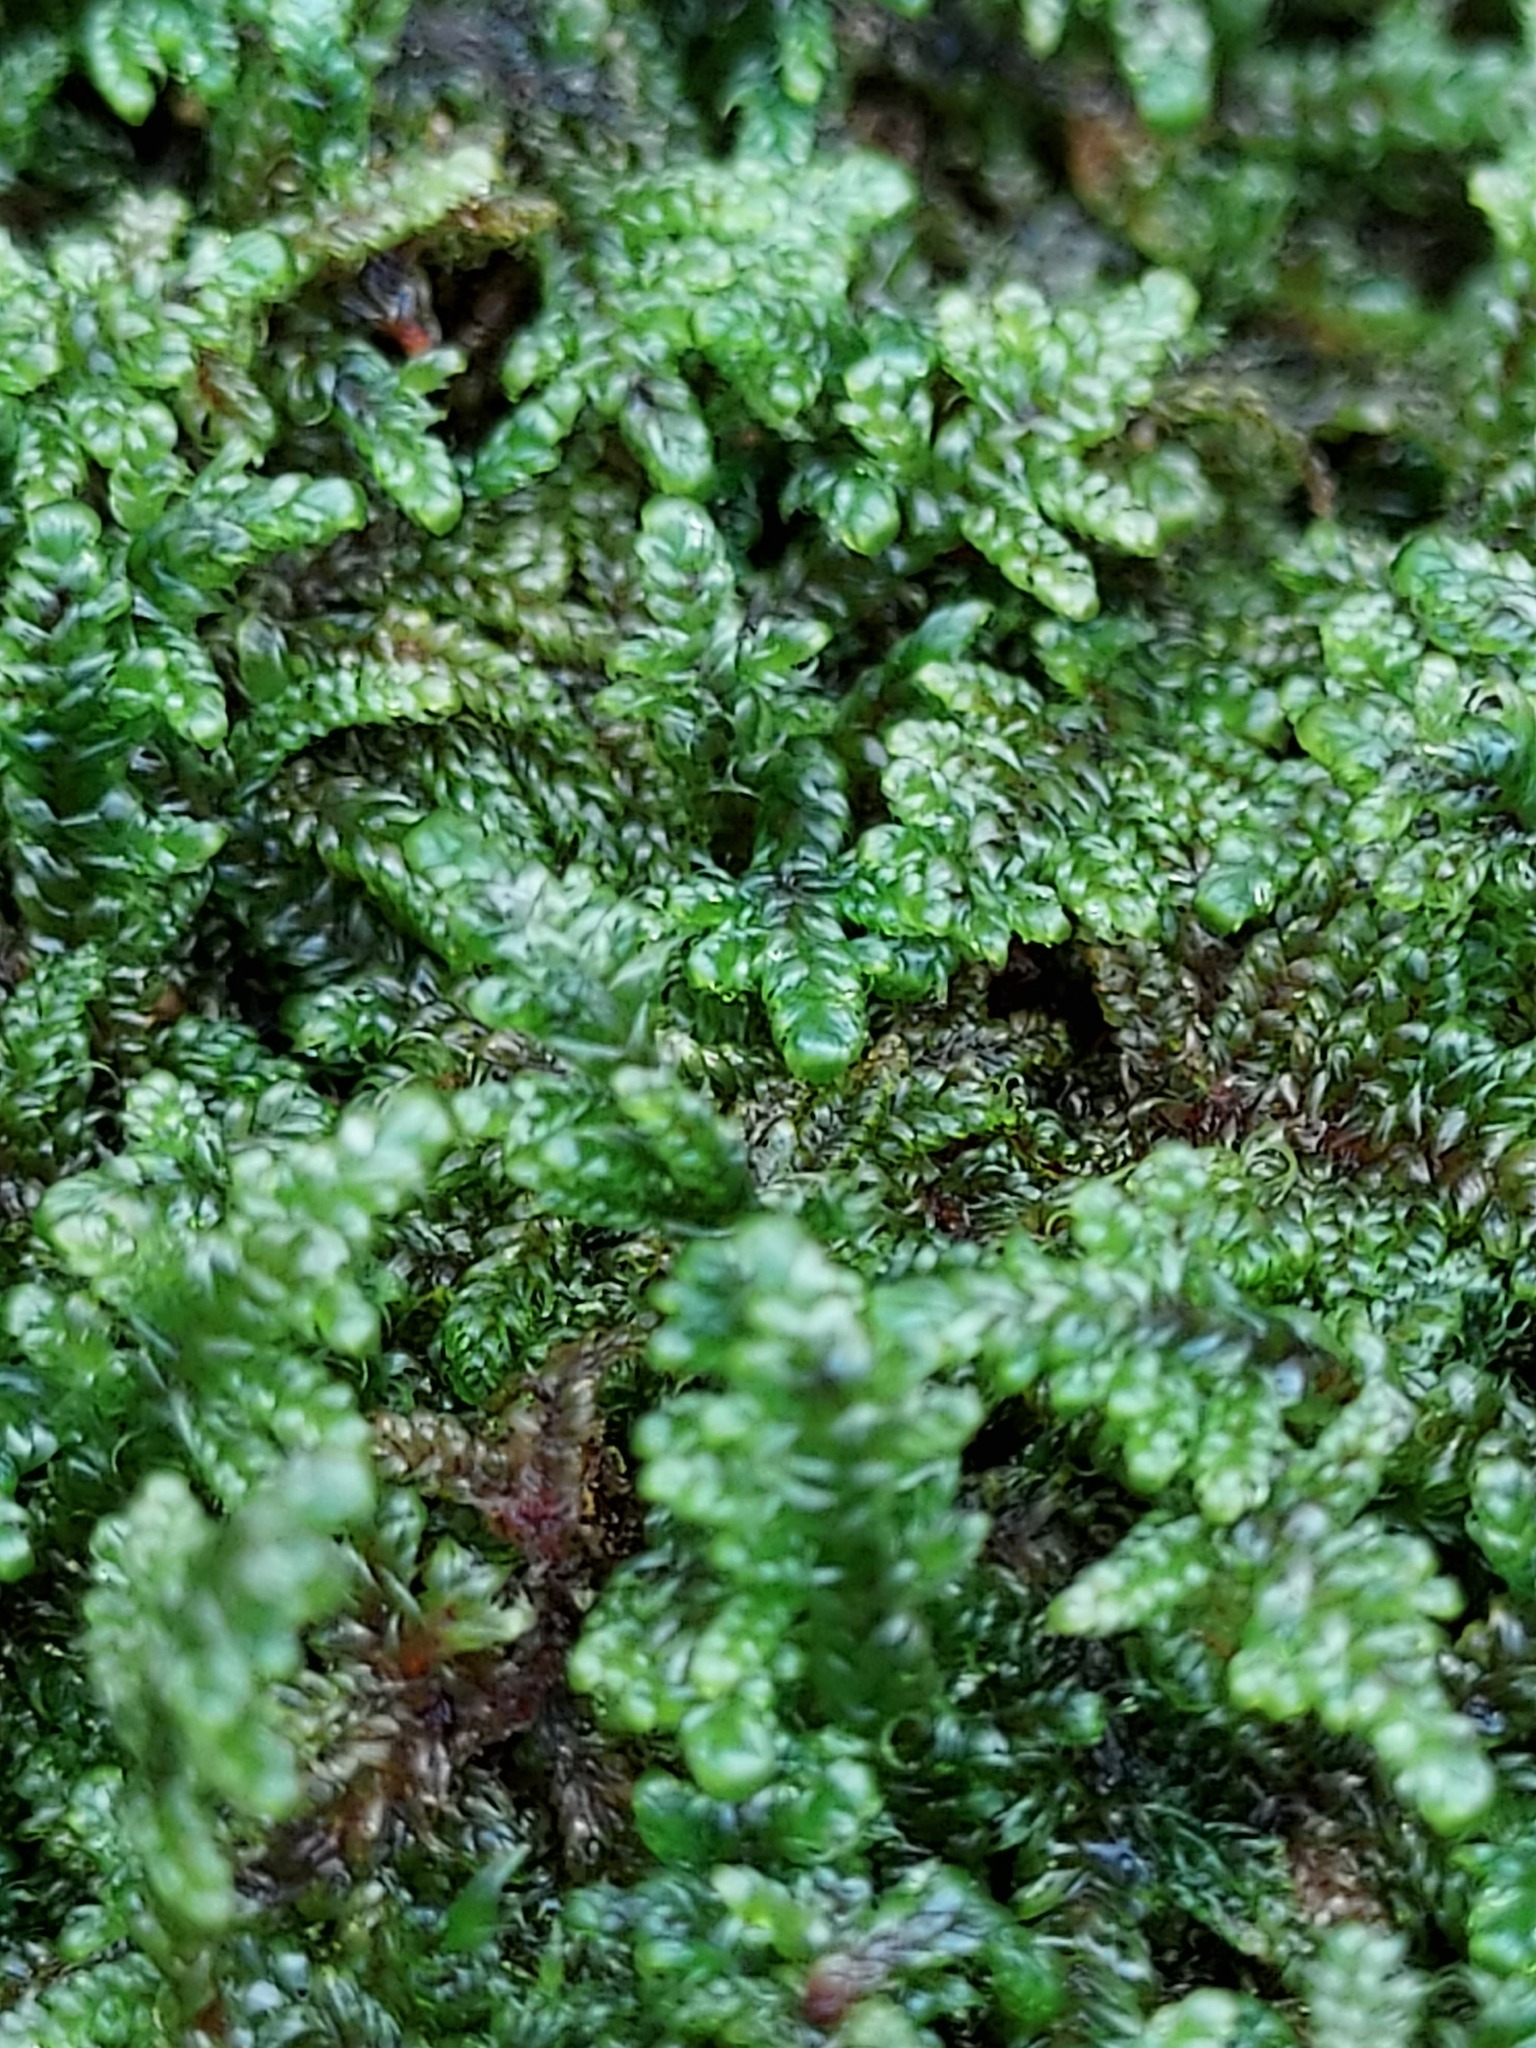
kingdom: Plantae
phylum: Bryophyta
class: Bryopsida
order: Hypnales
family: Callicladiaceae
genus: Callicladium
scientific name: Callicladium imponens
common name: Brocade moss
